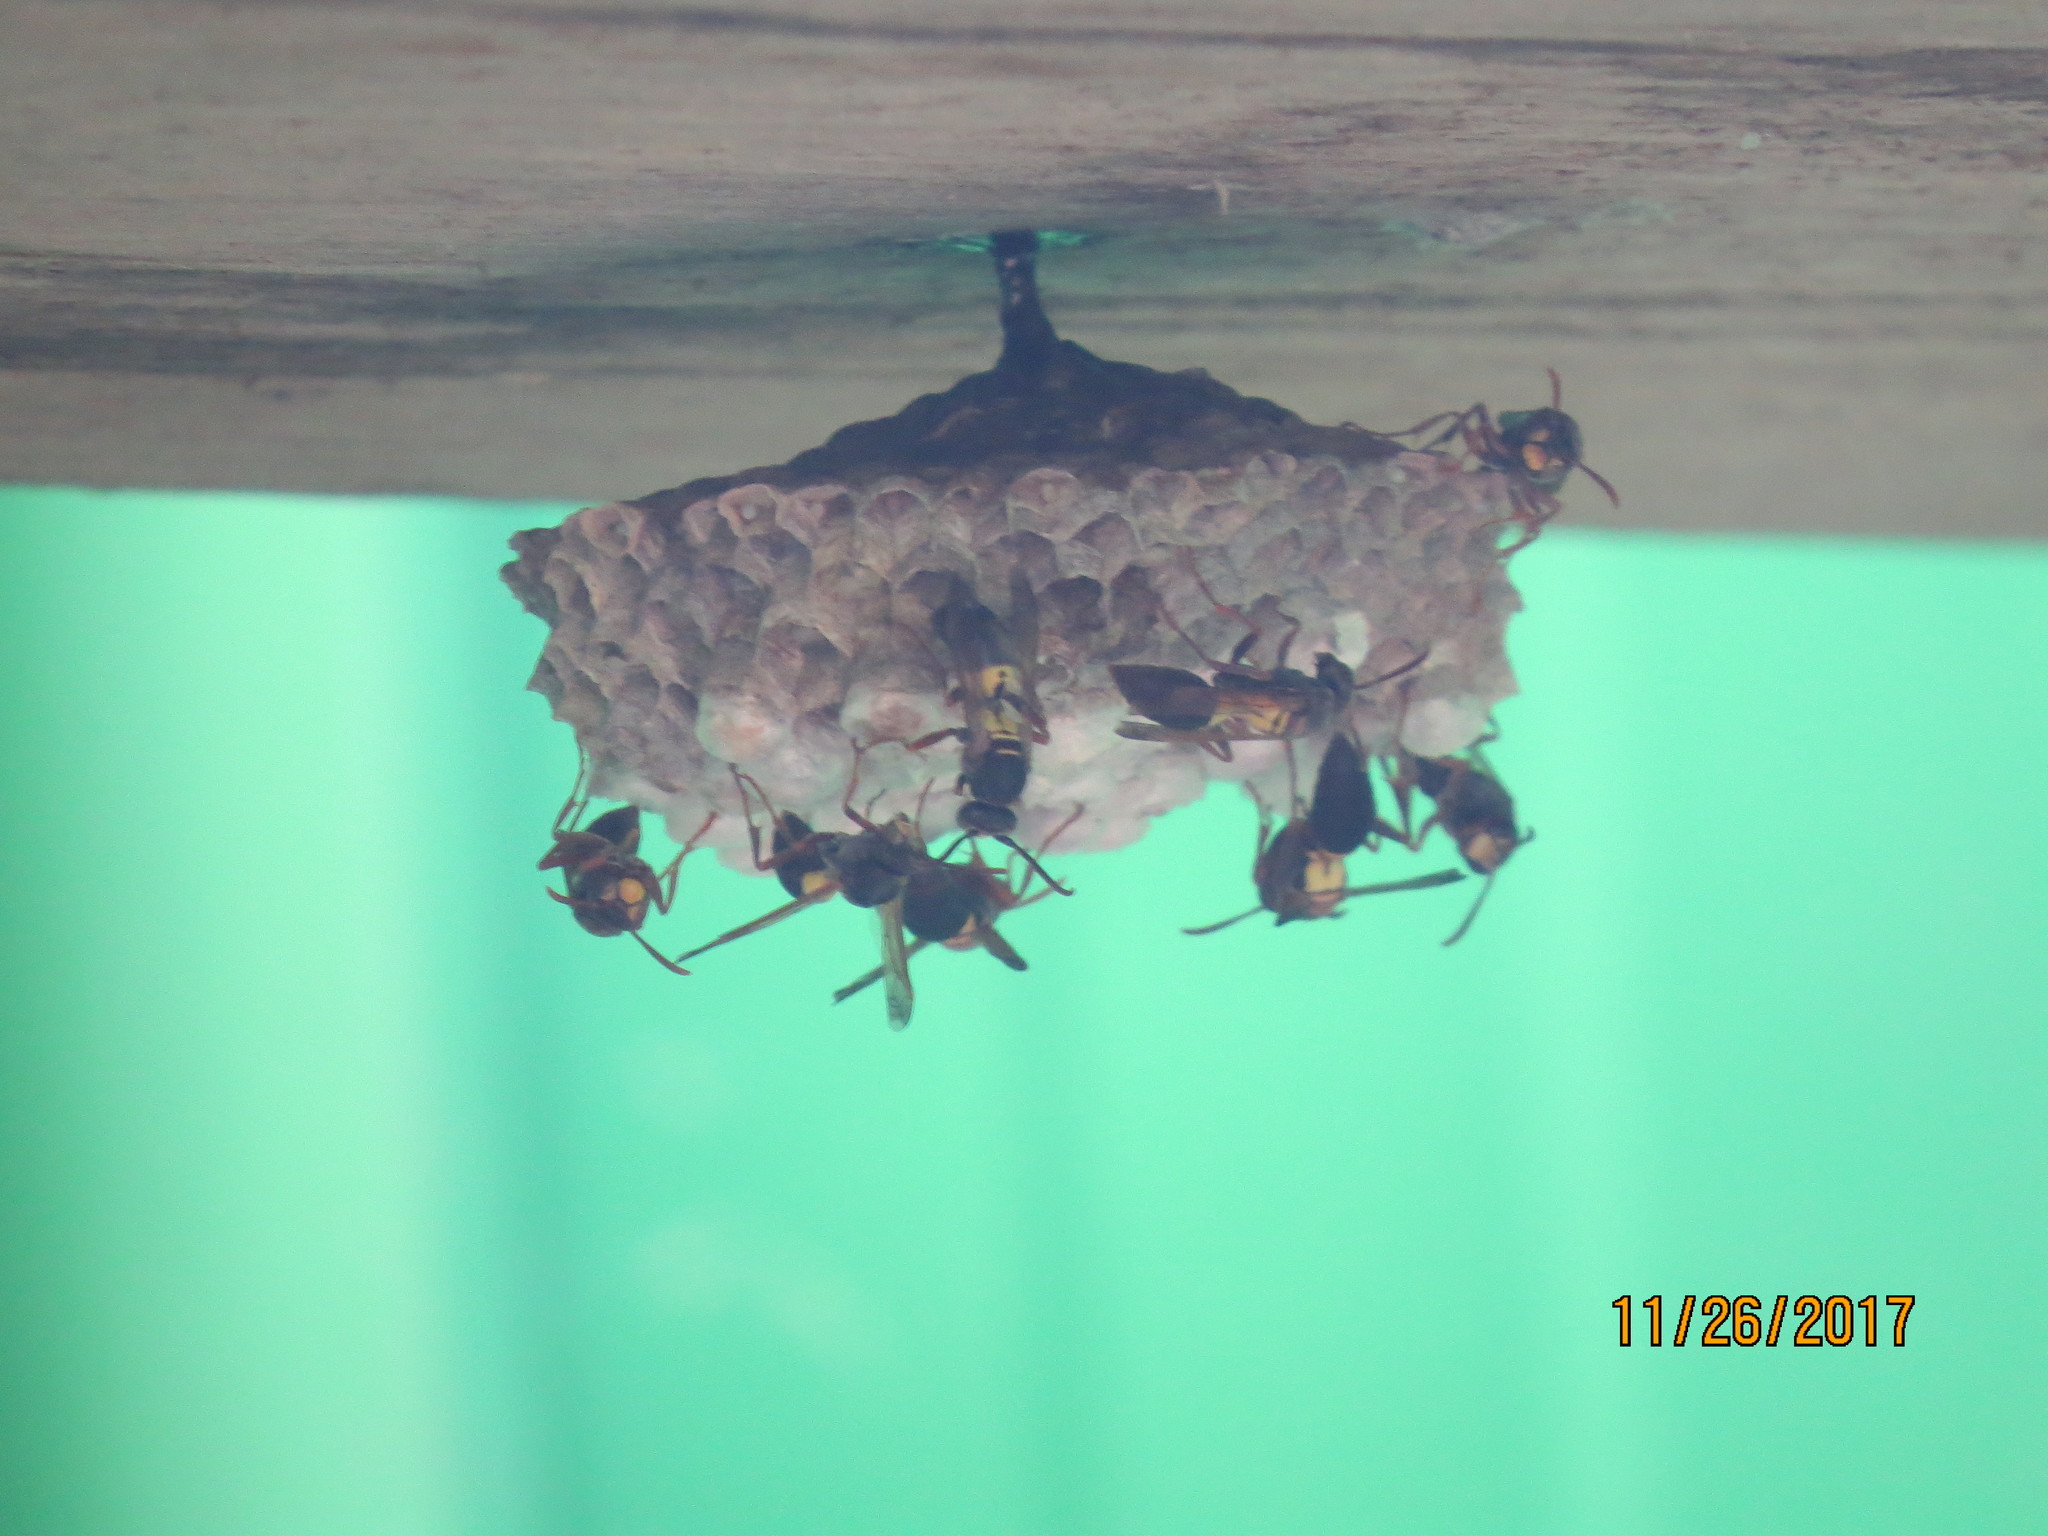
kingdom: Animalia
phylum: Arthropoda
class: Insecta
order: Hymenoptera
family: Eumenidae
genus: Polistes
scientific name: Polistes variabilis
